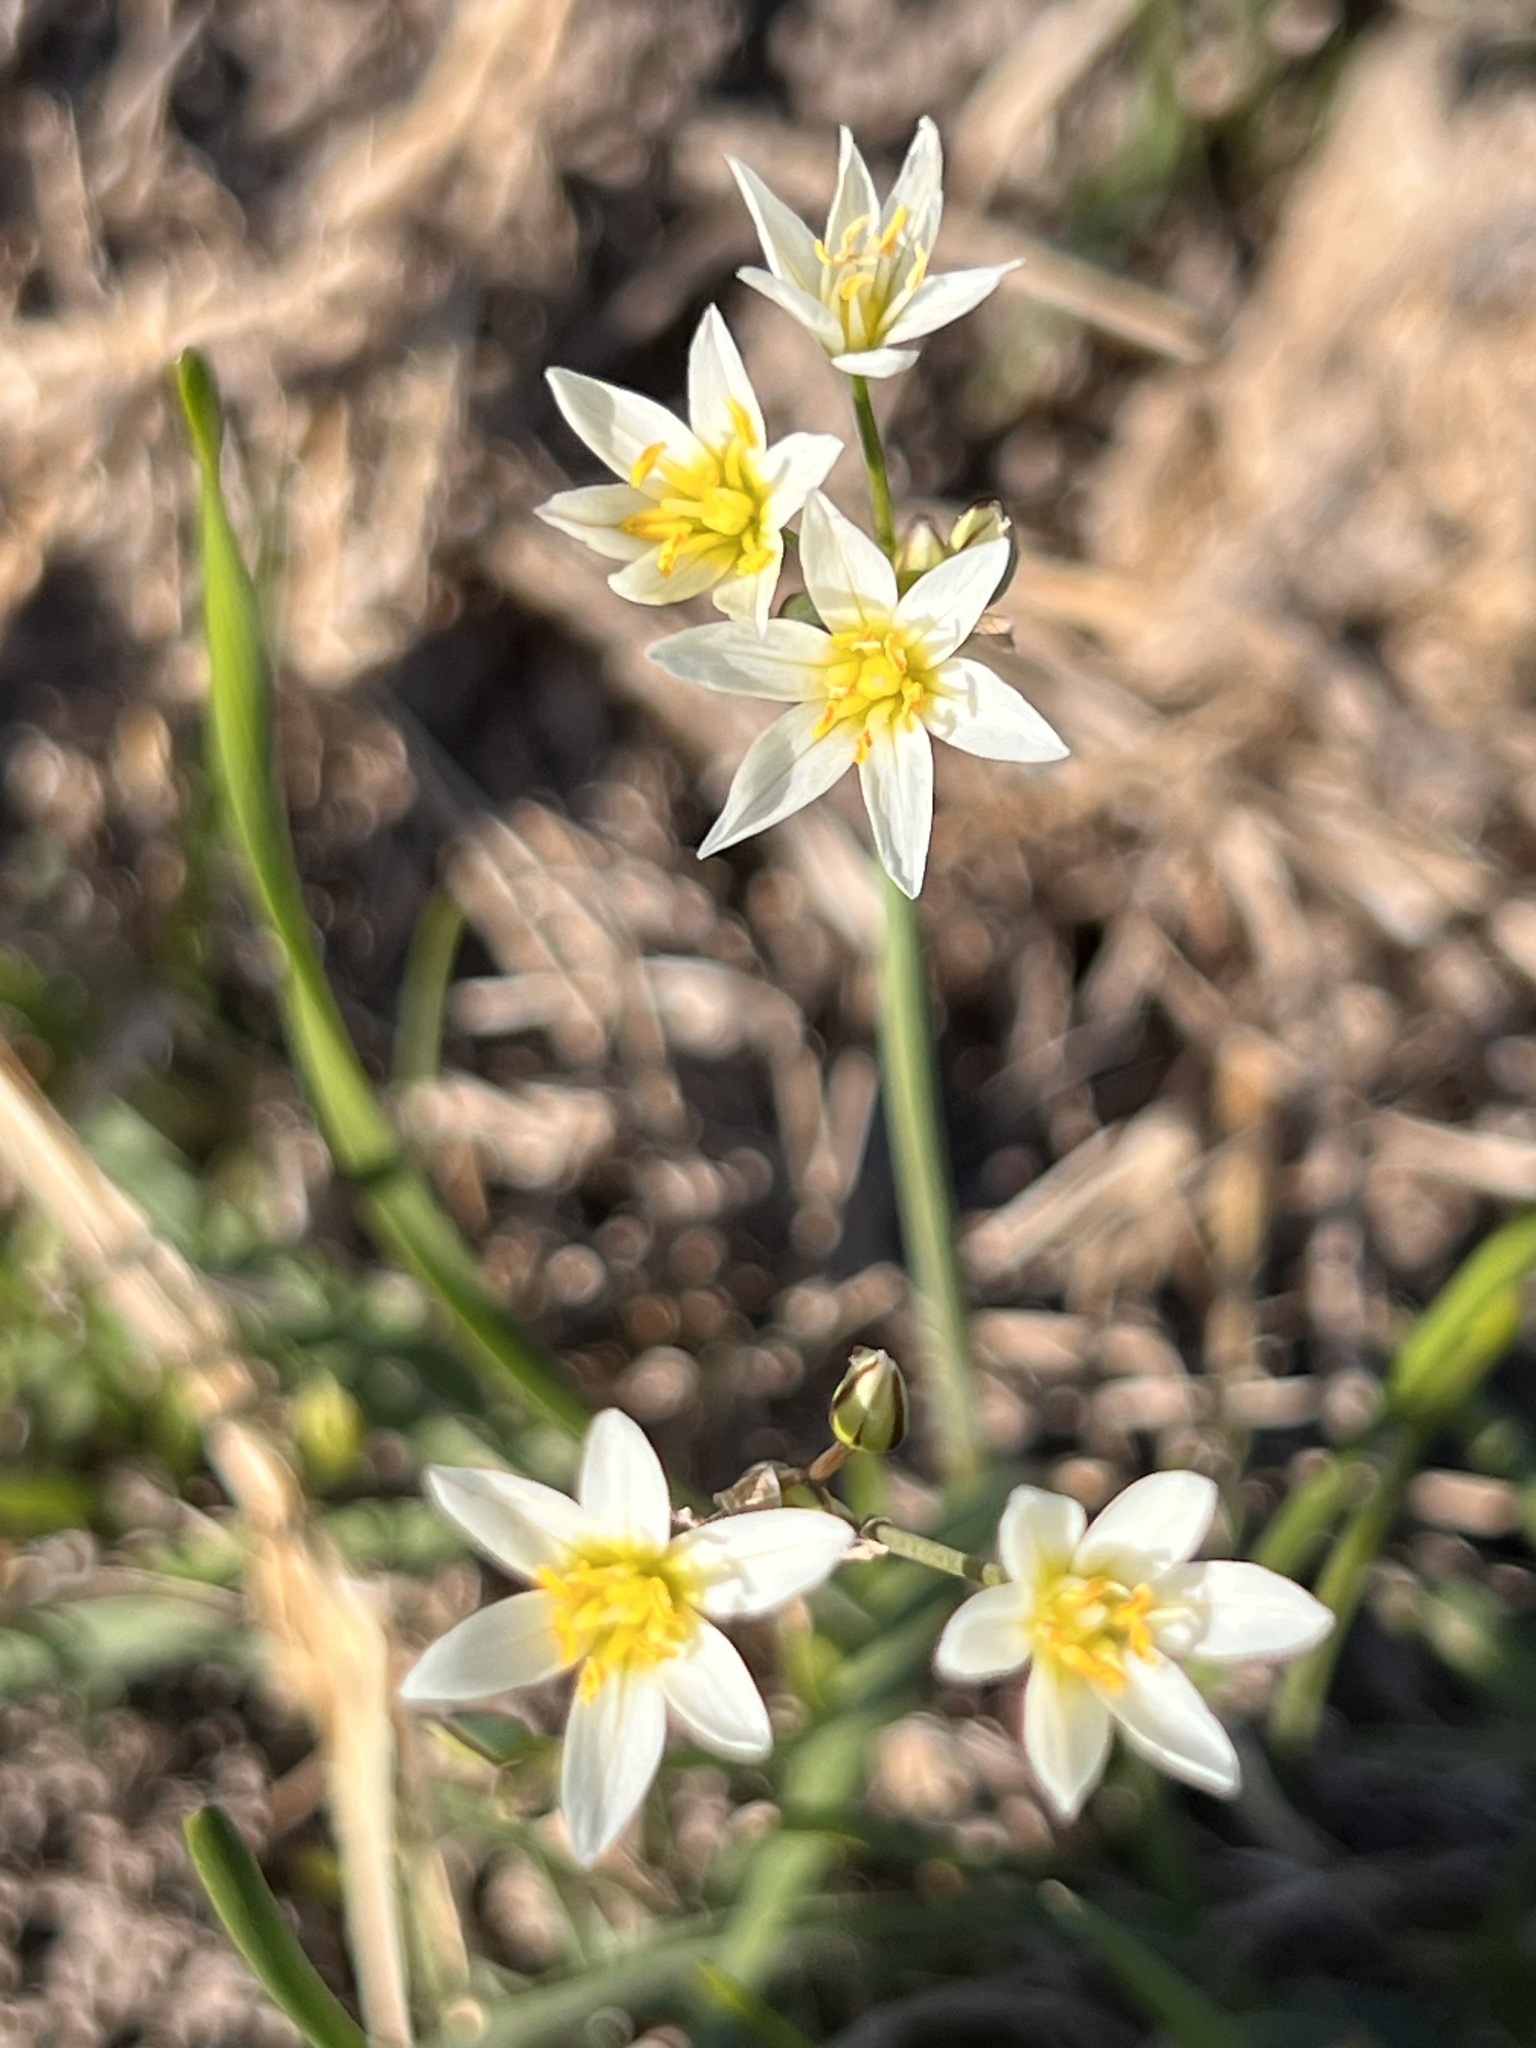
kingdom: Plantae
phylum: Tracheophyta
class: Liliopsida
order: Asparagales
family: Amaryllidaceae
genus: Nothoscordum
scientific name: Nothoscordum bivalve
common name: Crow-poison
